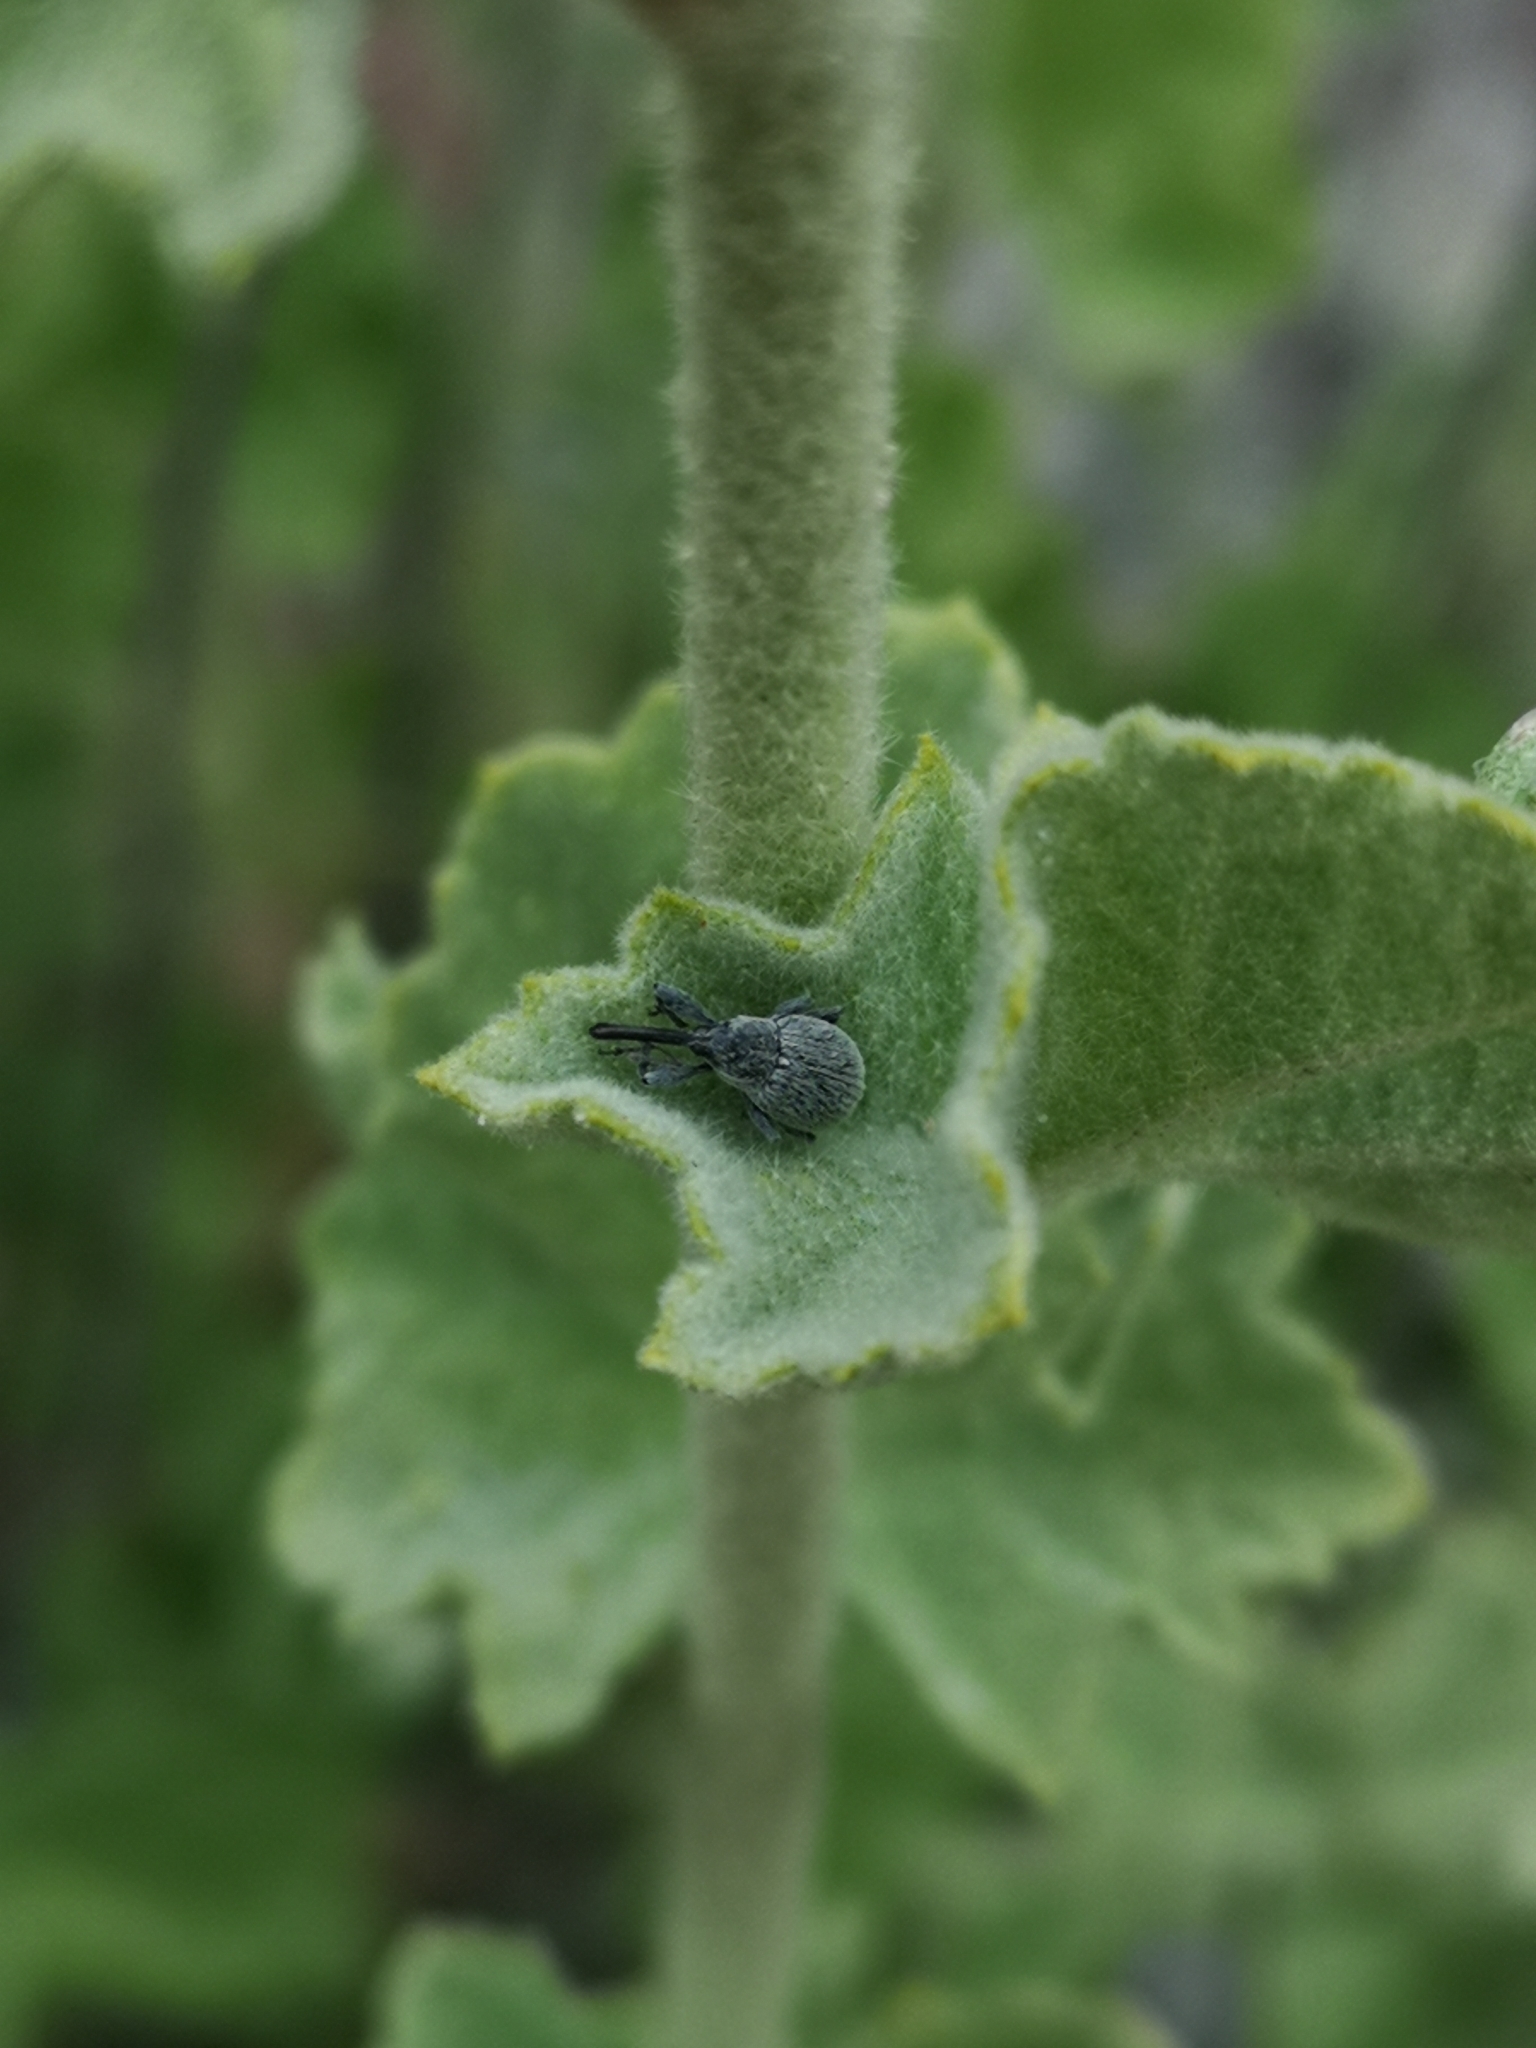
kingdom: Plantae
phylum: Tracheophyta
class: Magnoliopsida
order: Malvales
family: Malvaceae
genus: Malacothamnus
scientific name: Malacothamnus fremontii
